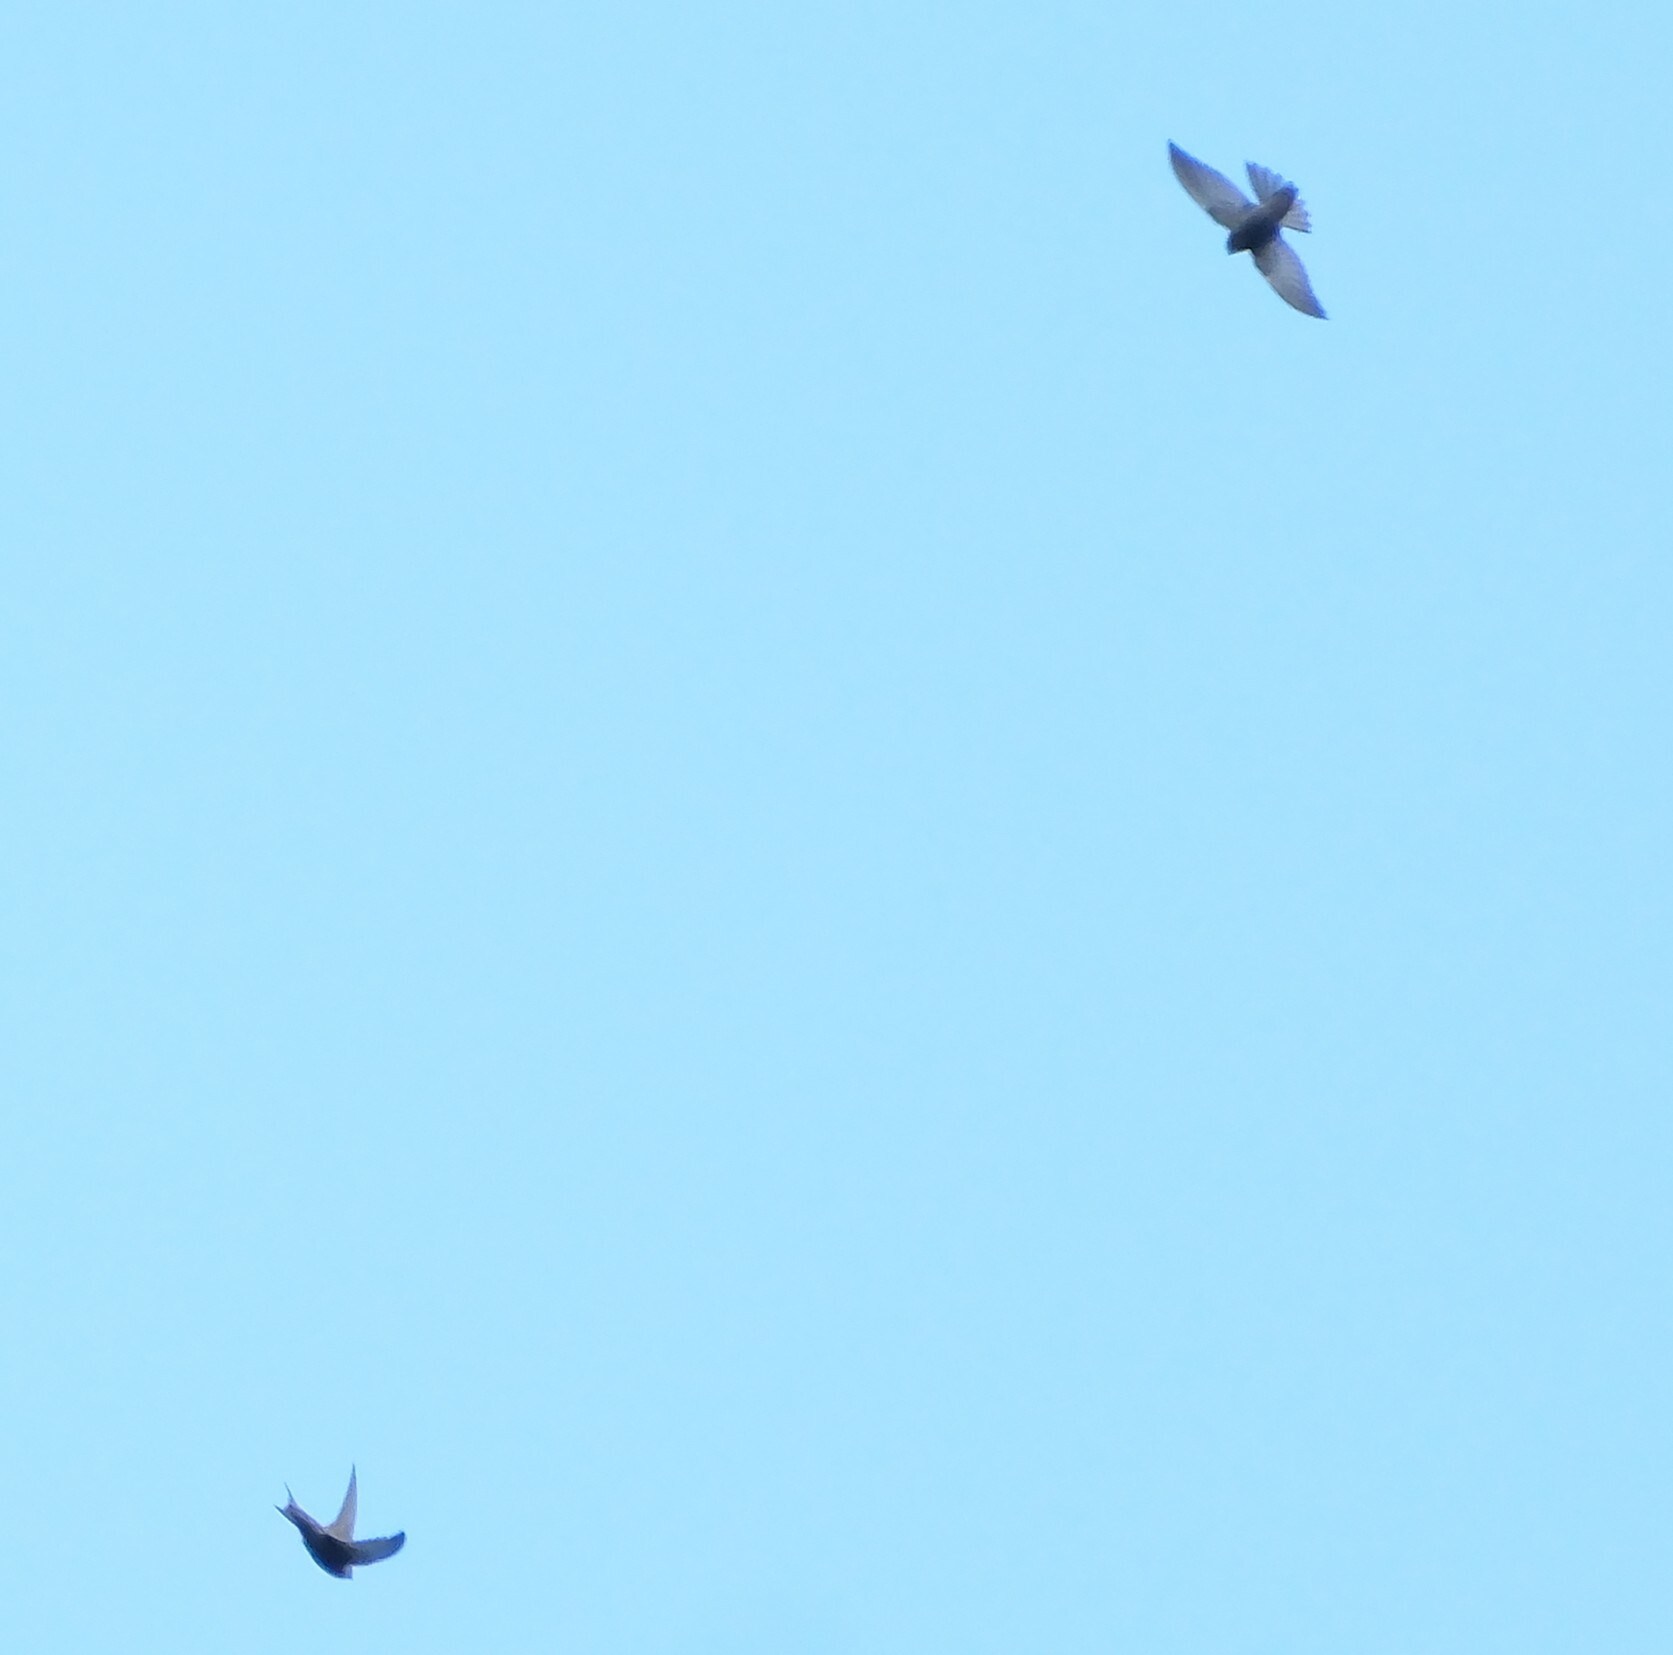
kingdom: Animalia
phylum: Chordata
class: Aves
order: Apodiformes
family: Apodidae
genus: Apus
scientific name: Apus unicolor
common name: Plain swift
